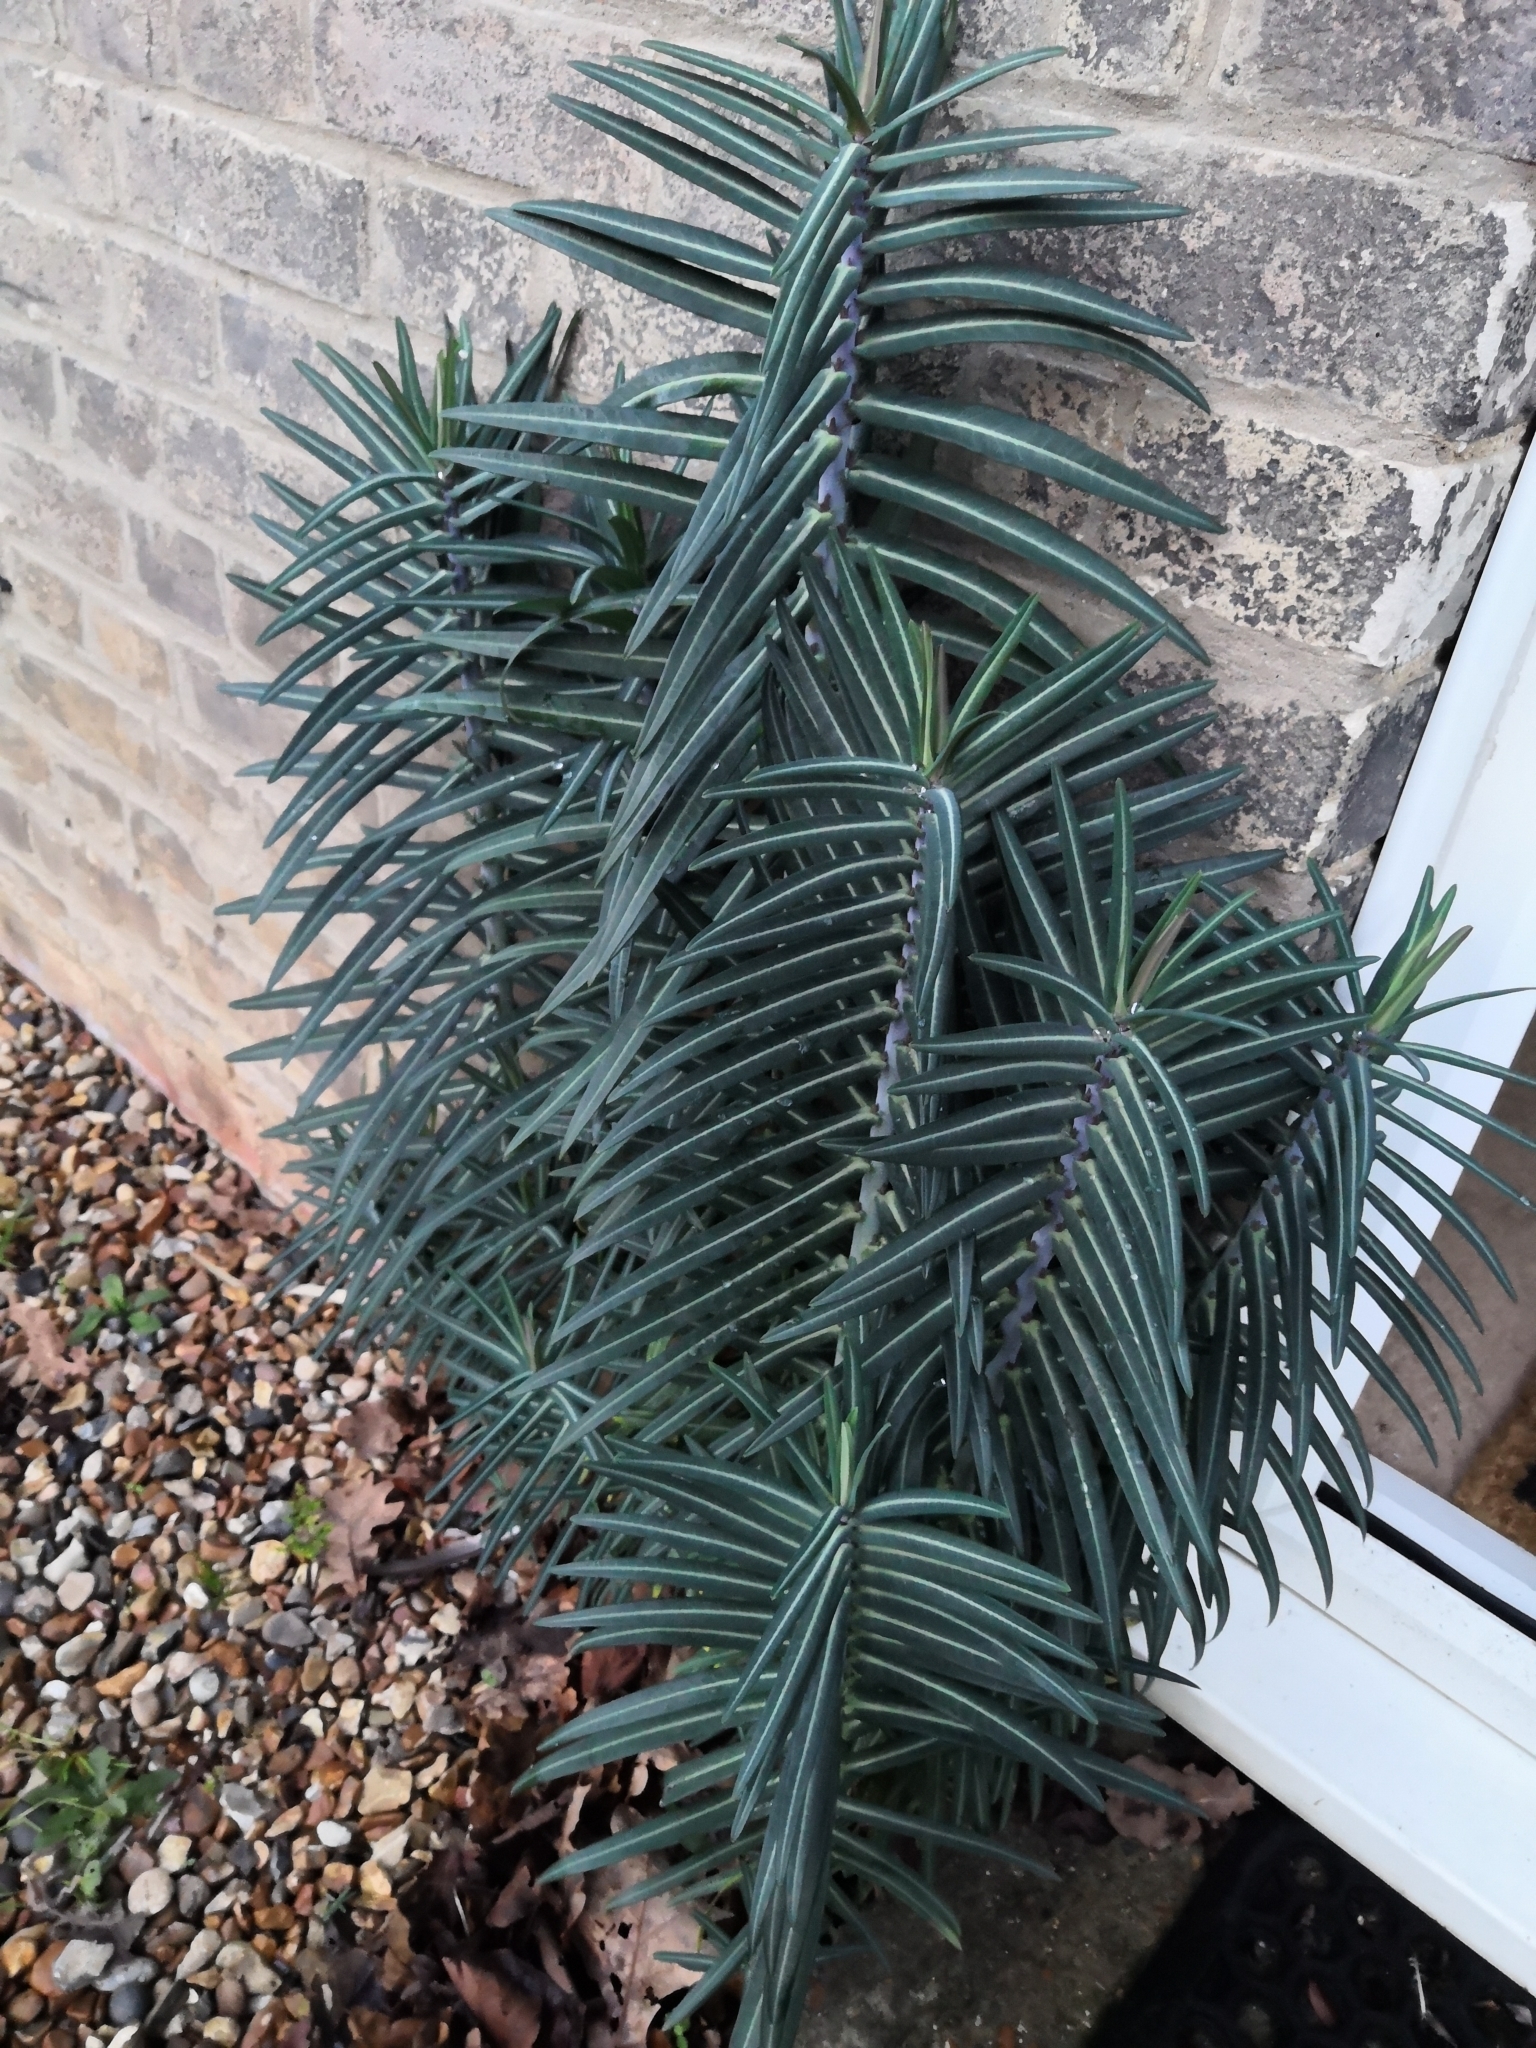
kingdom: Plantae
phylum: Tracheophyta
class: Magnoliopsida
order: Malpighiales
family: Euphorbiaceae
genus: Euphorbia
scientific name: Euphorbia lathyris
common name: Caper spurge
